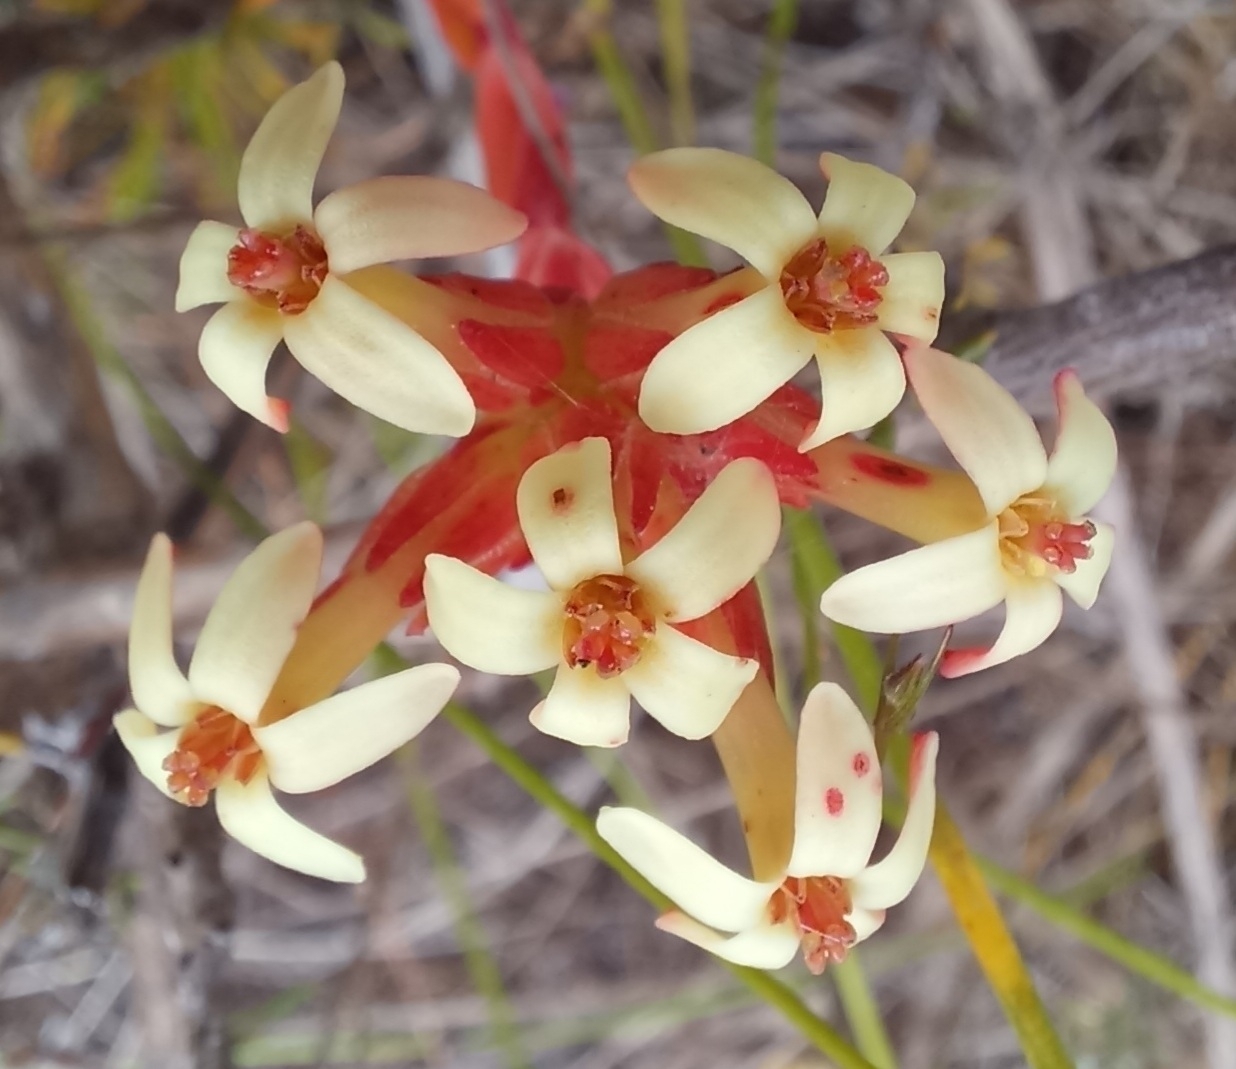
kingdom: Plantae
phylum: Tracheophyta
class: Magnoliopsida
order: Saxifragales
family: Crassulaceae
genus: Crassula
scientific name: Crassula fascicularis
